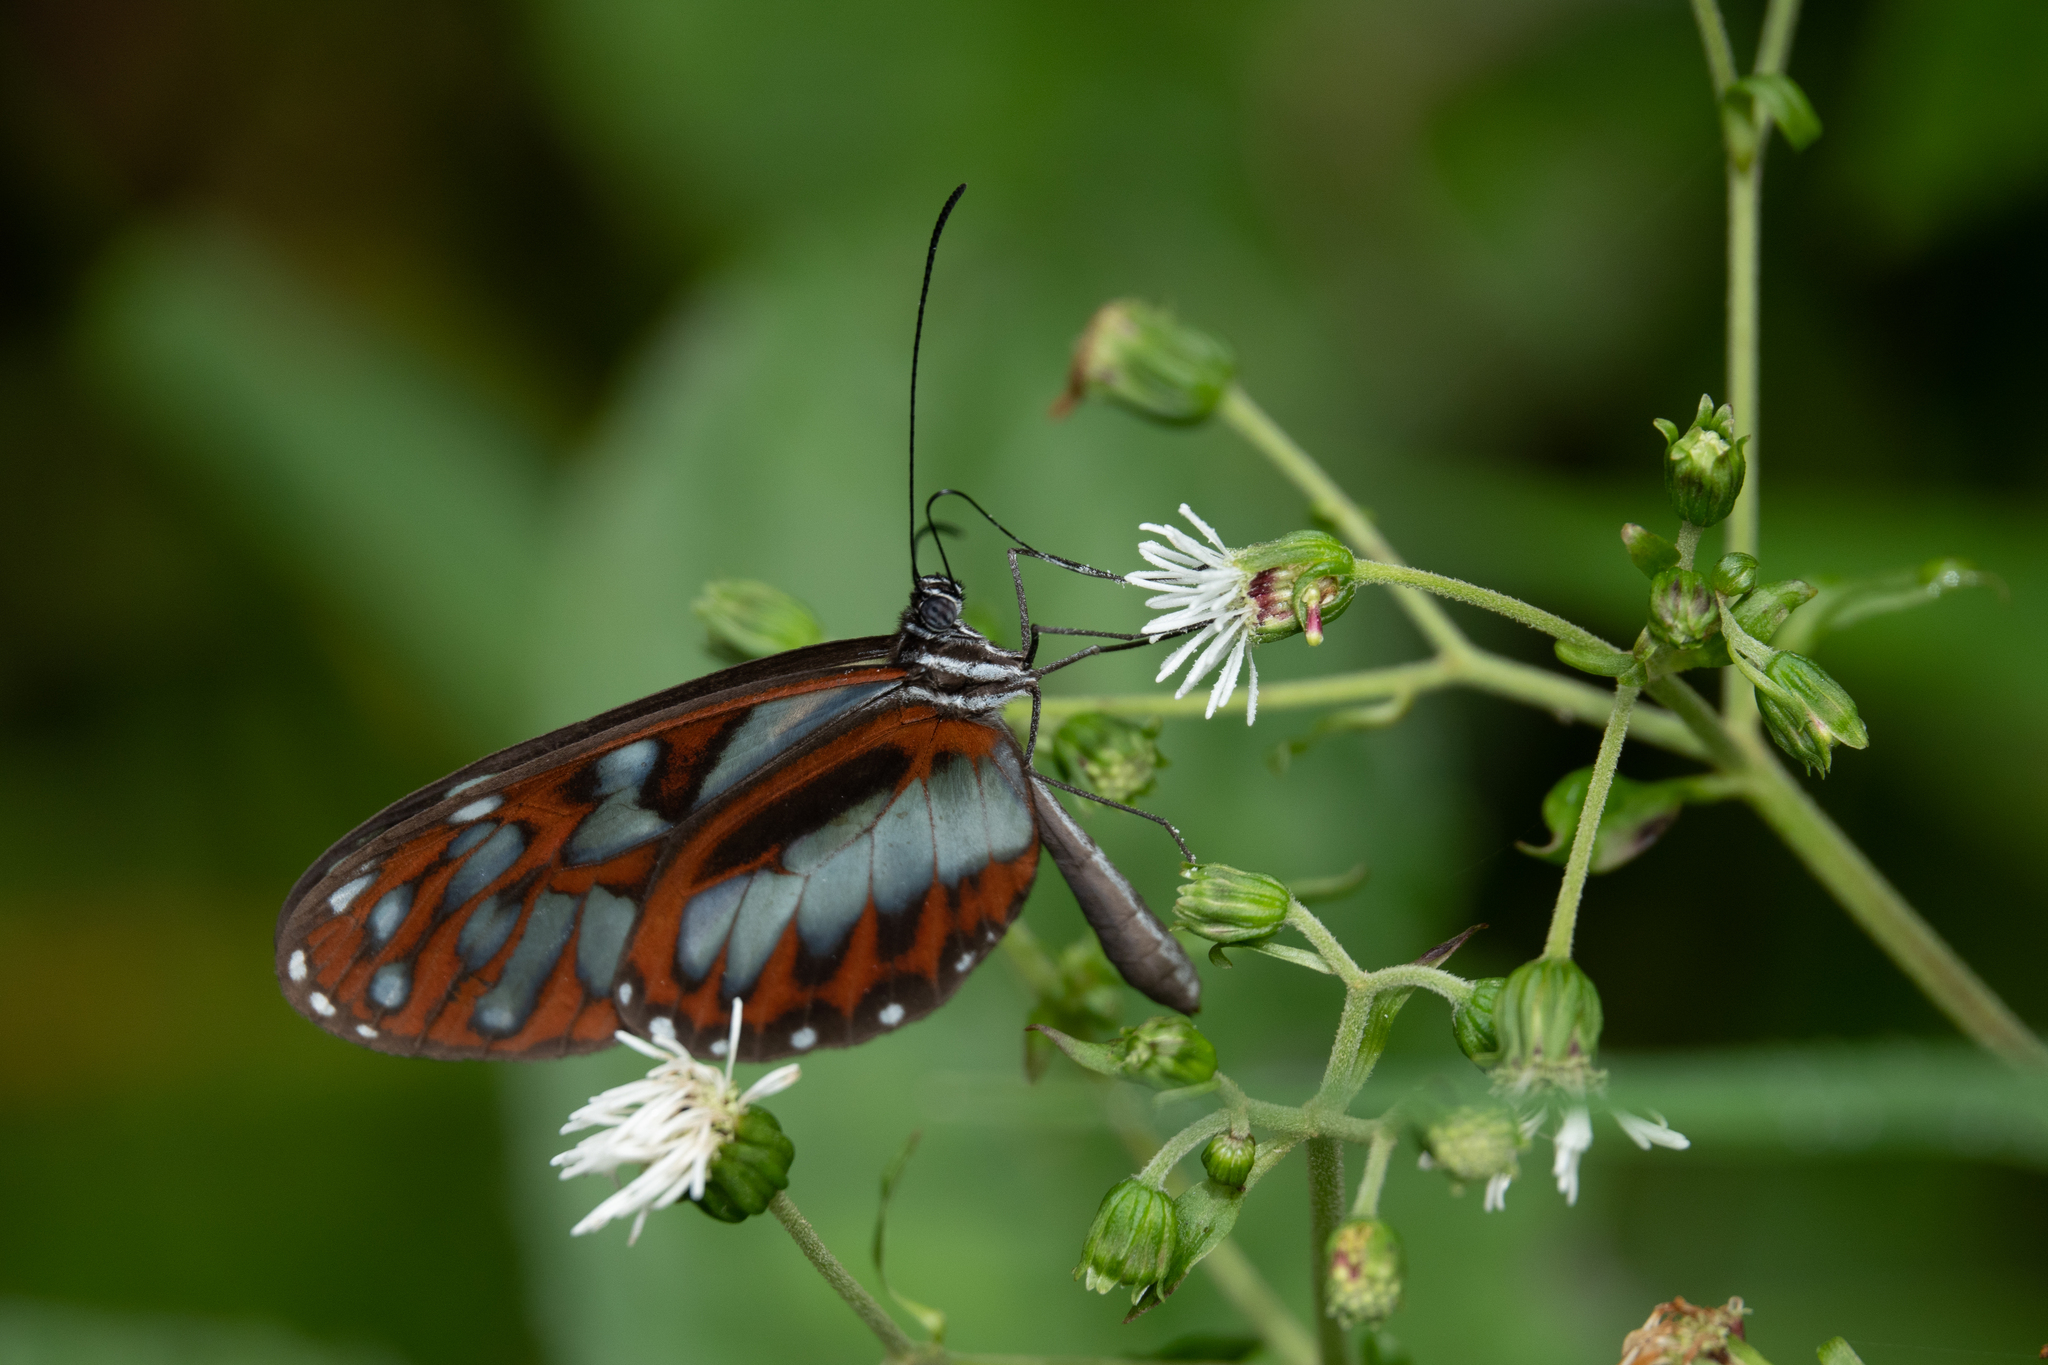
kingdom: Animalia
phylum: Arthropoda
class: Insecta
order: Lepidoptera
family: Nymphalidae
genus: Oleria
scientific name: Oleria cyrene
